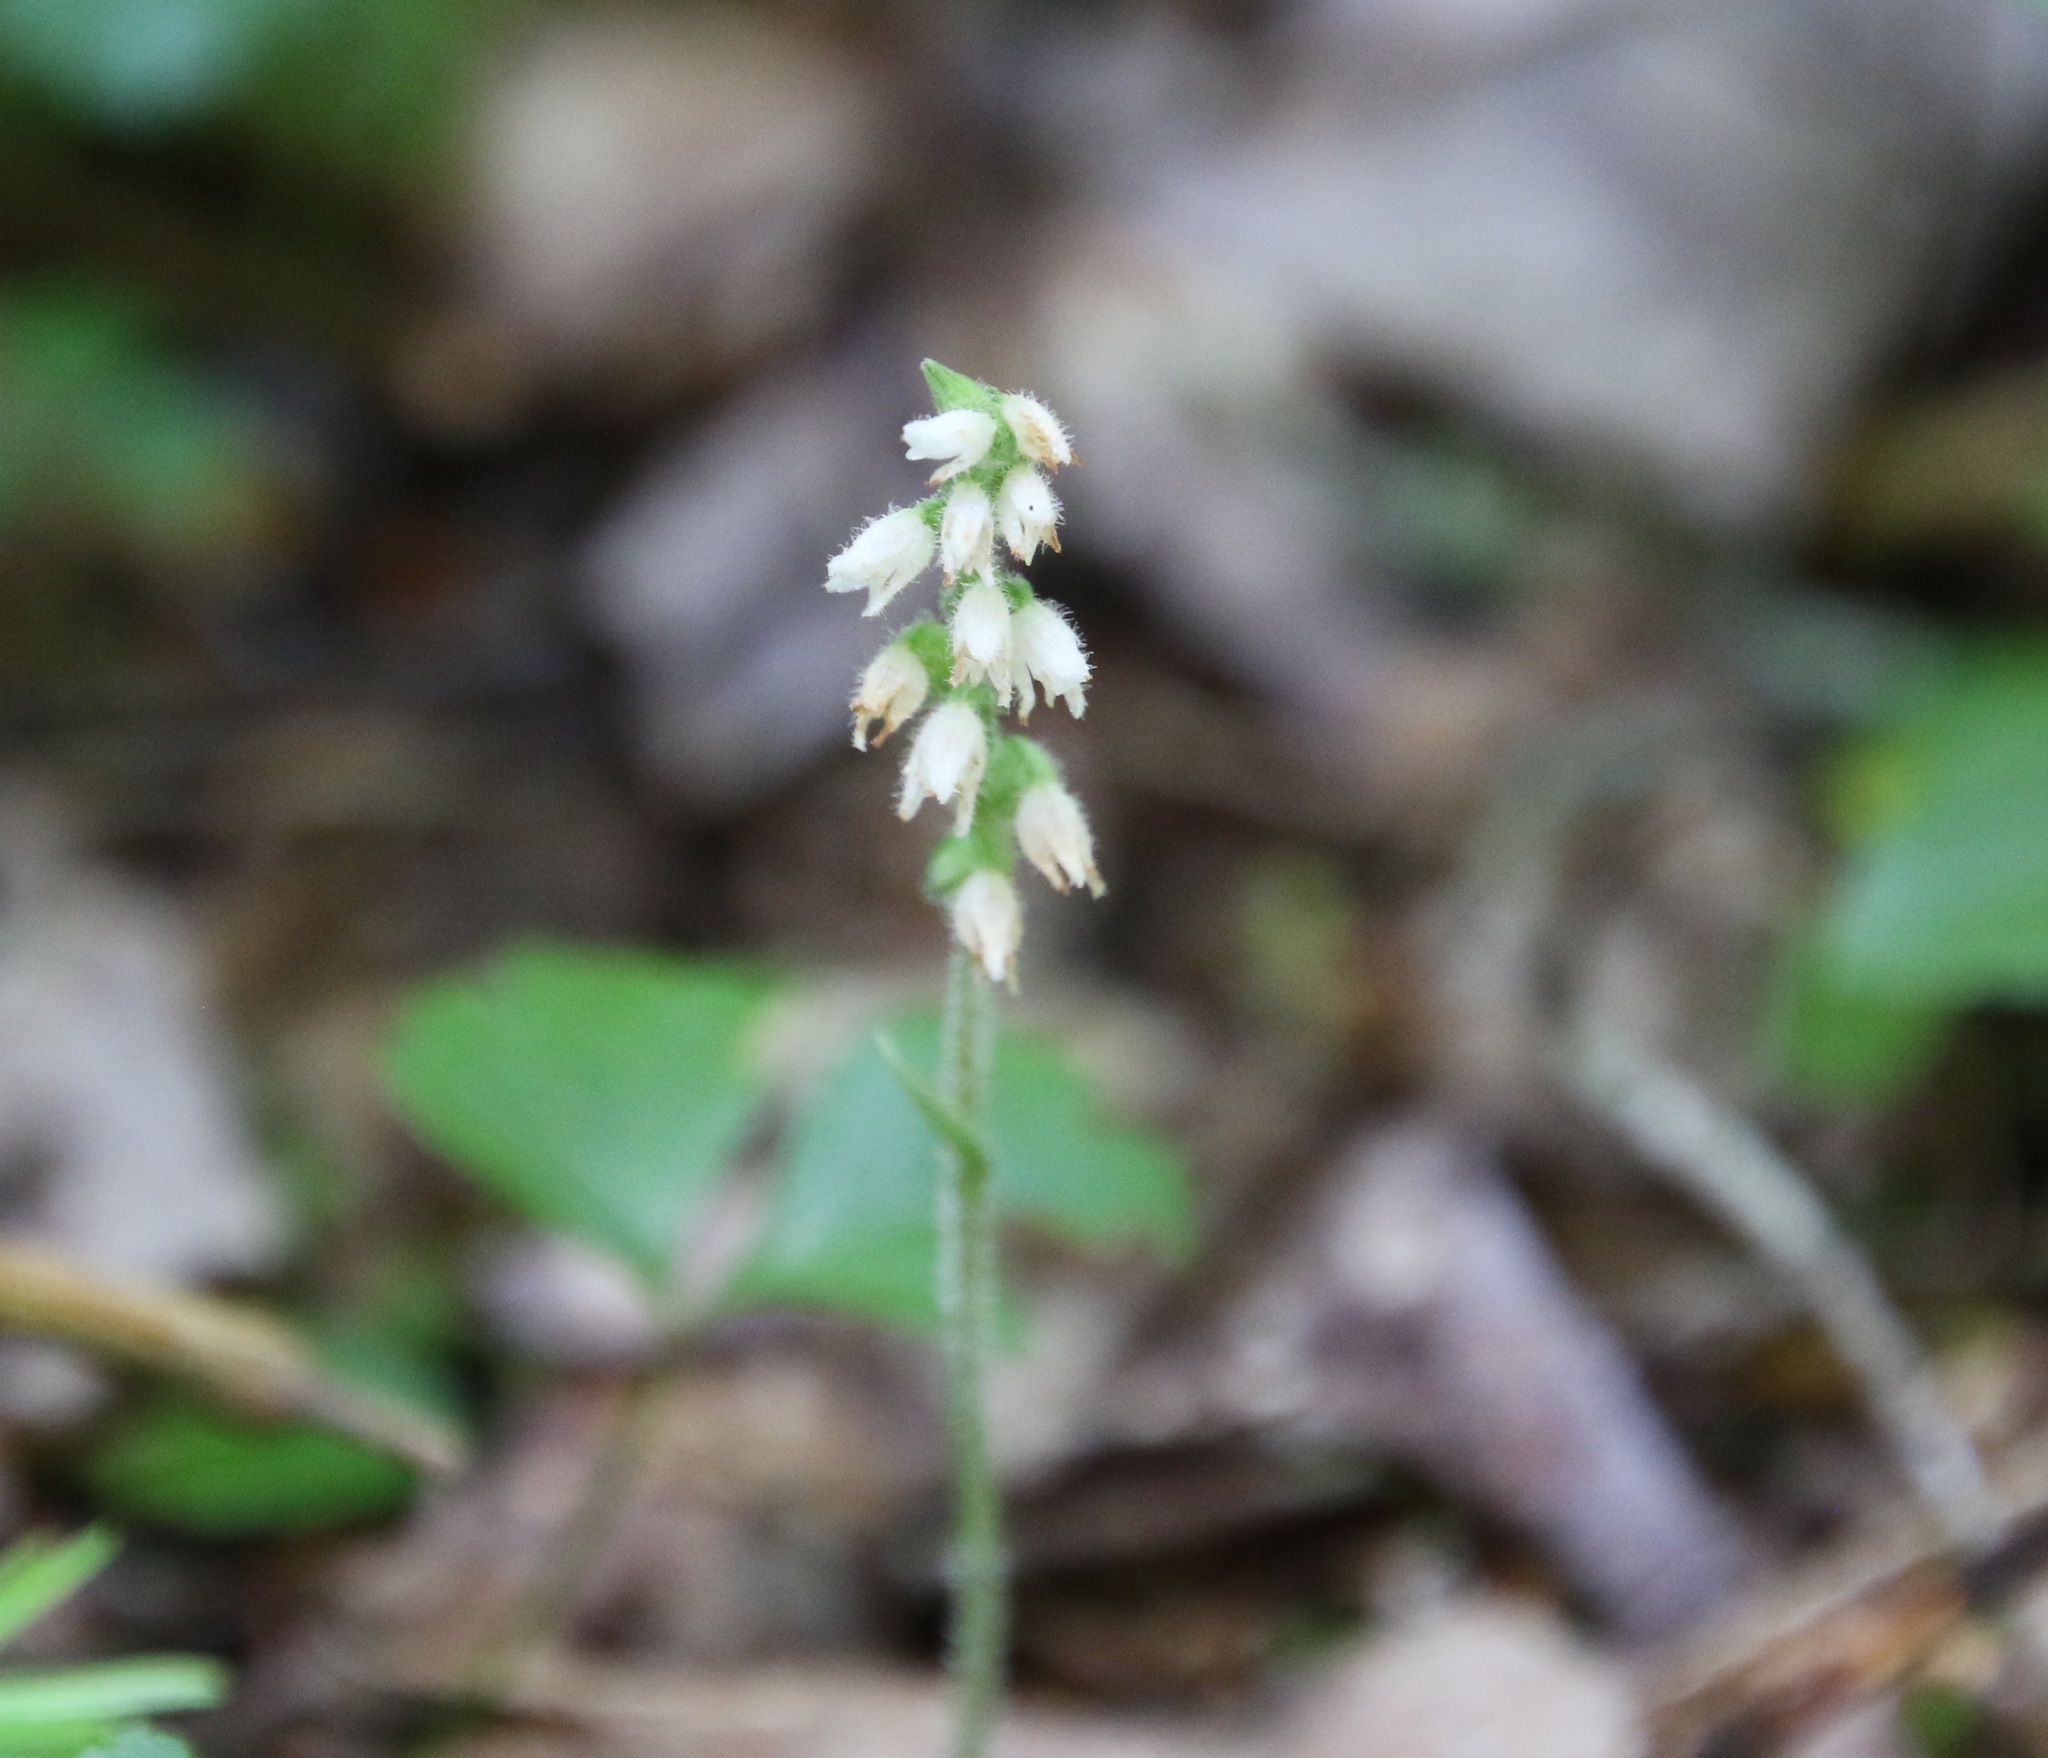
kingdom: Plantae
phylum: Tracheophyta
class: Liliopsida
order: Asparagales
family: Orchidaceae
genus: Goodyera
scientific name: Goodyera repens
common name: Creeping lady's-tresses
